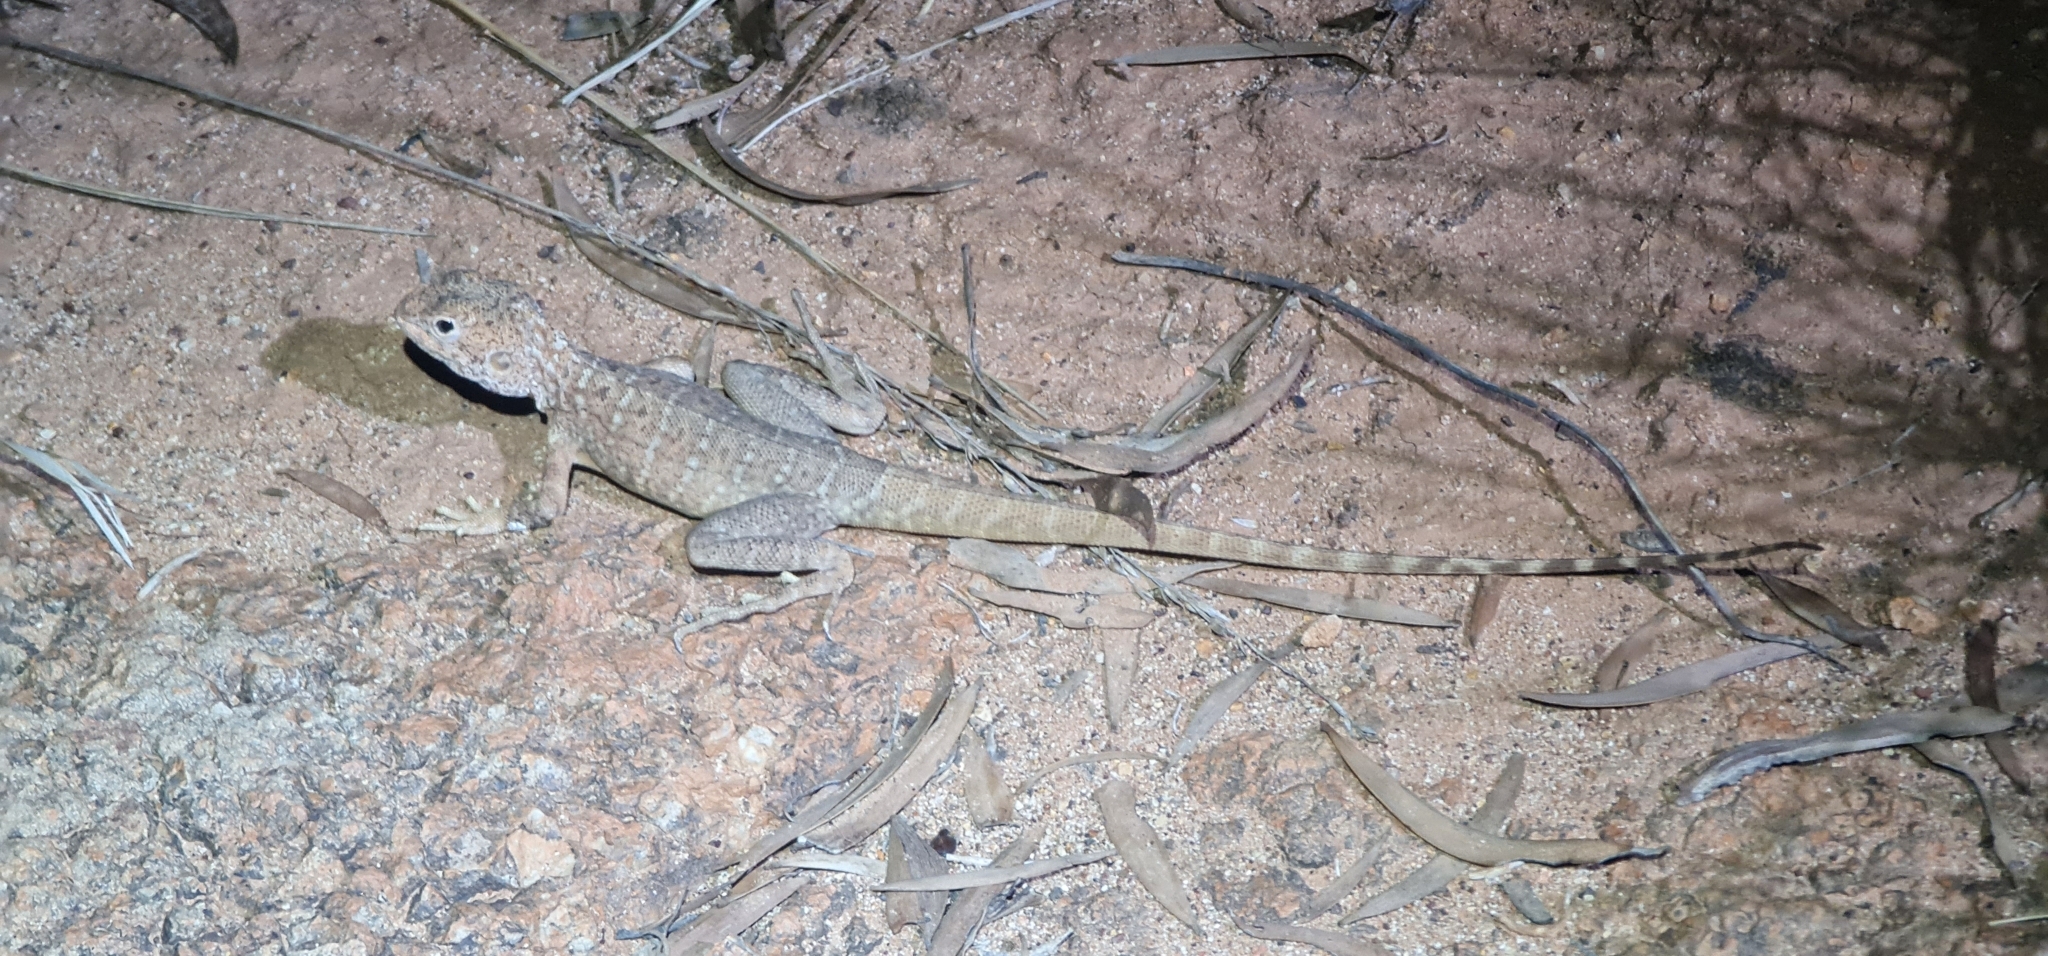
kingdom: Animalia
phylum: Chordata
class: Squamata
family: Agamidae
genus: Ctenophorus
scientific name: Ctenophorus slateri
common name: Slater’s dragon
